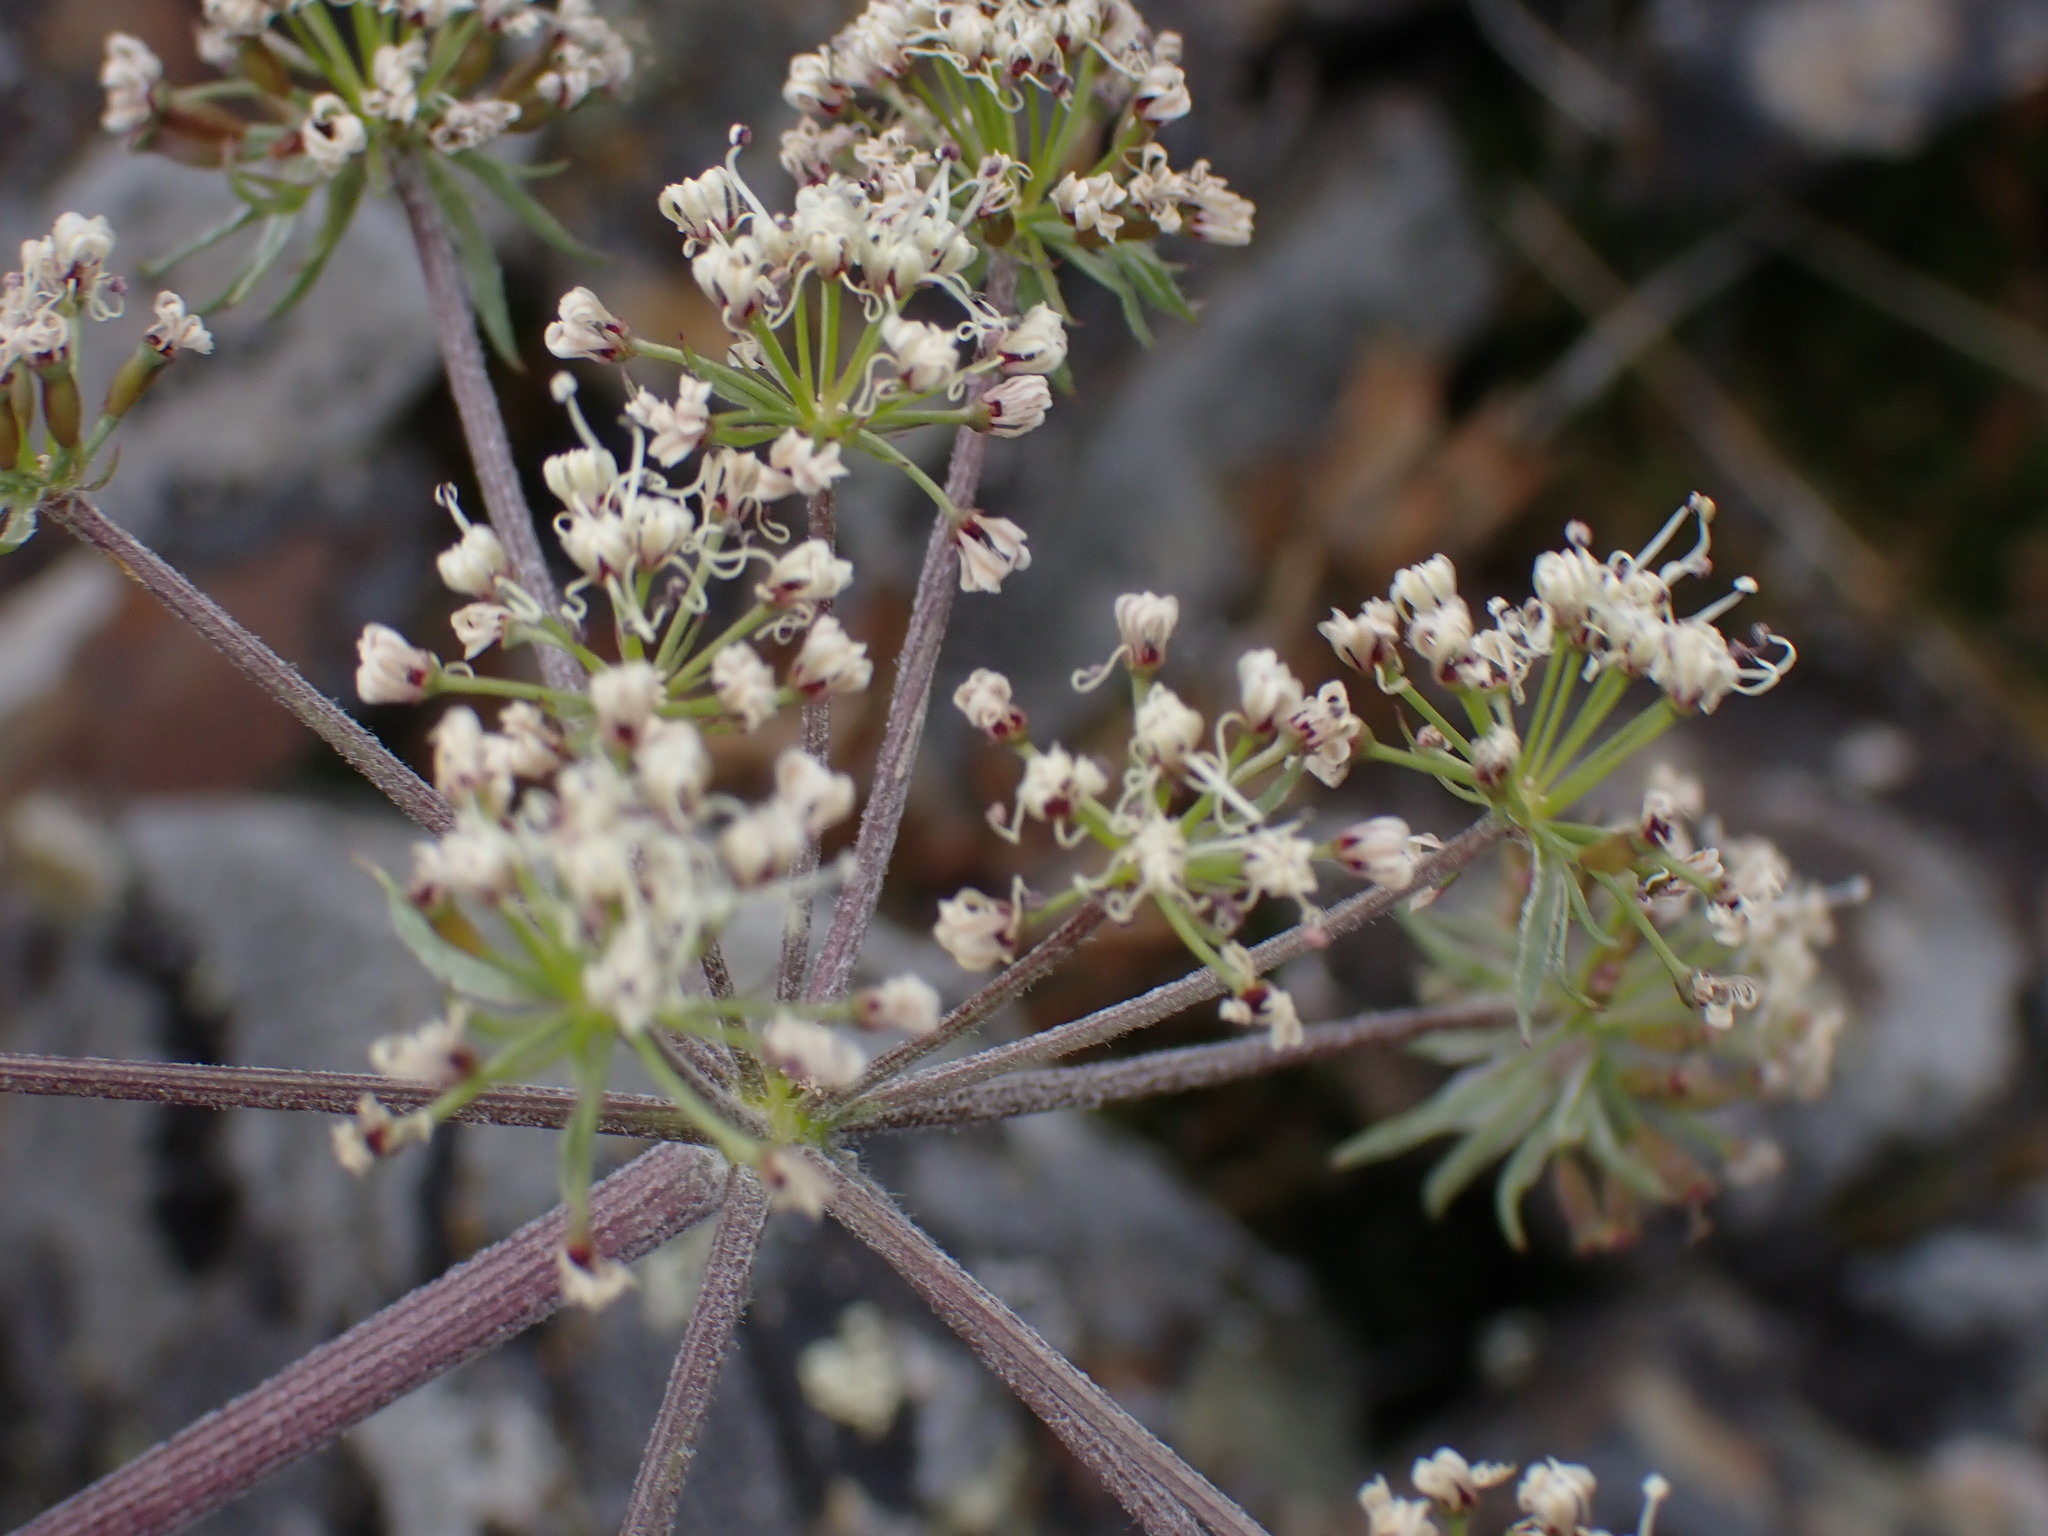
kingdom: Plantae
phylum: Tracheophyta
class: Magnoliopsida
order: Apiales
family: Apiaceae
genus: Lomatium
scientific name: Lomatium macrocarpum
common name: Big-seed biscuitroot
